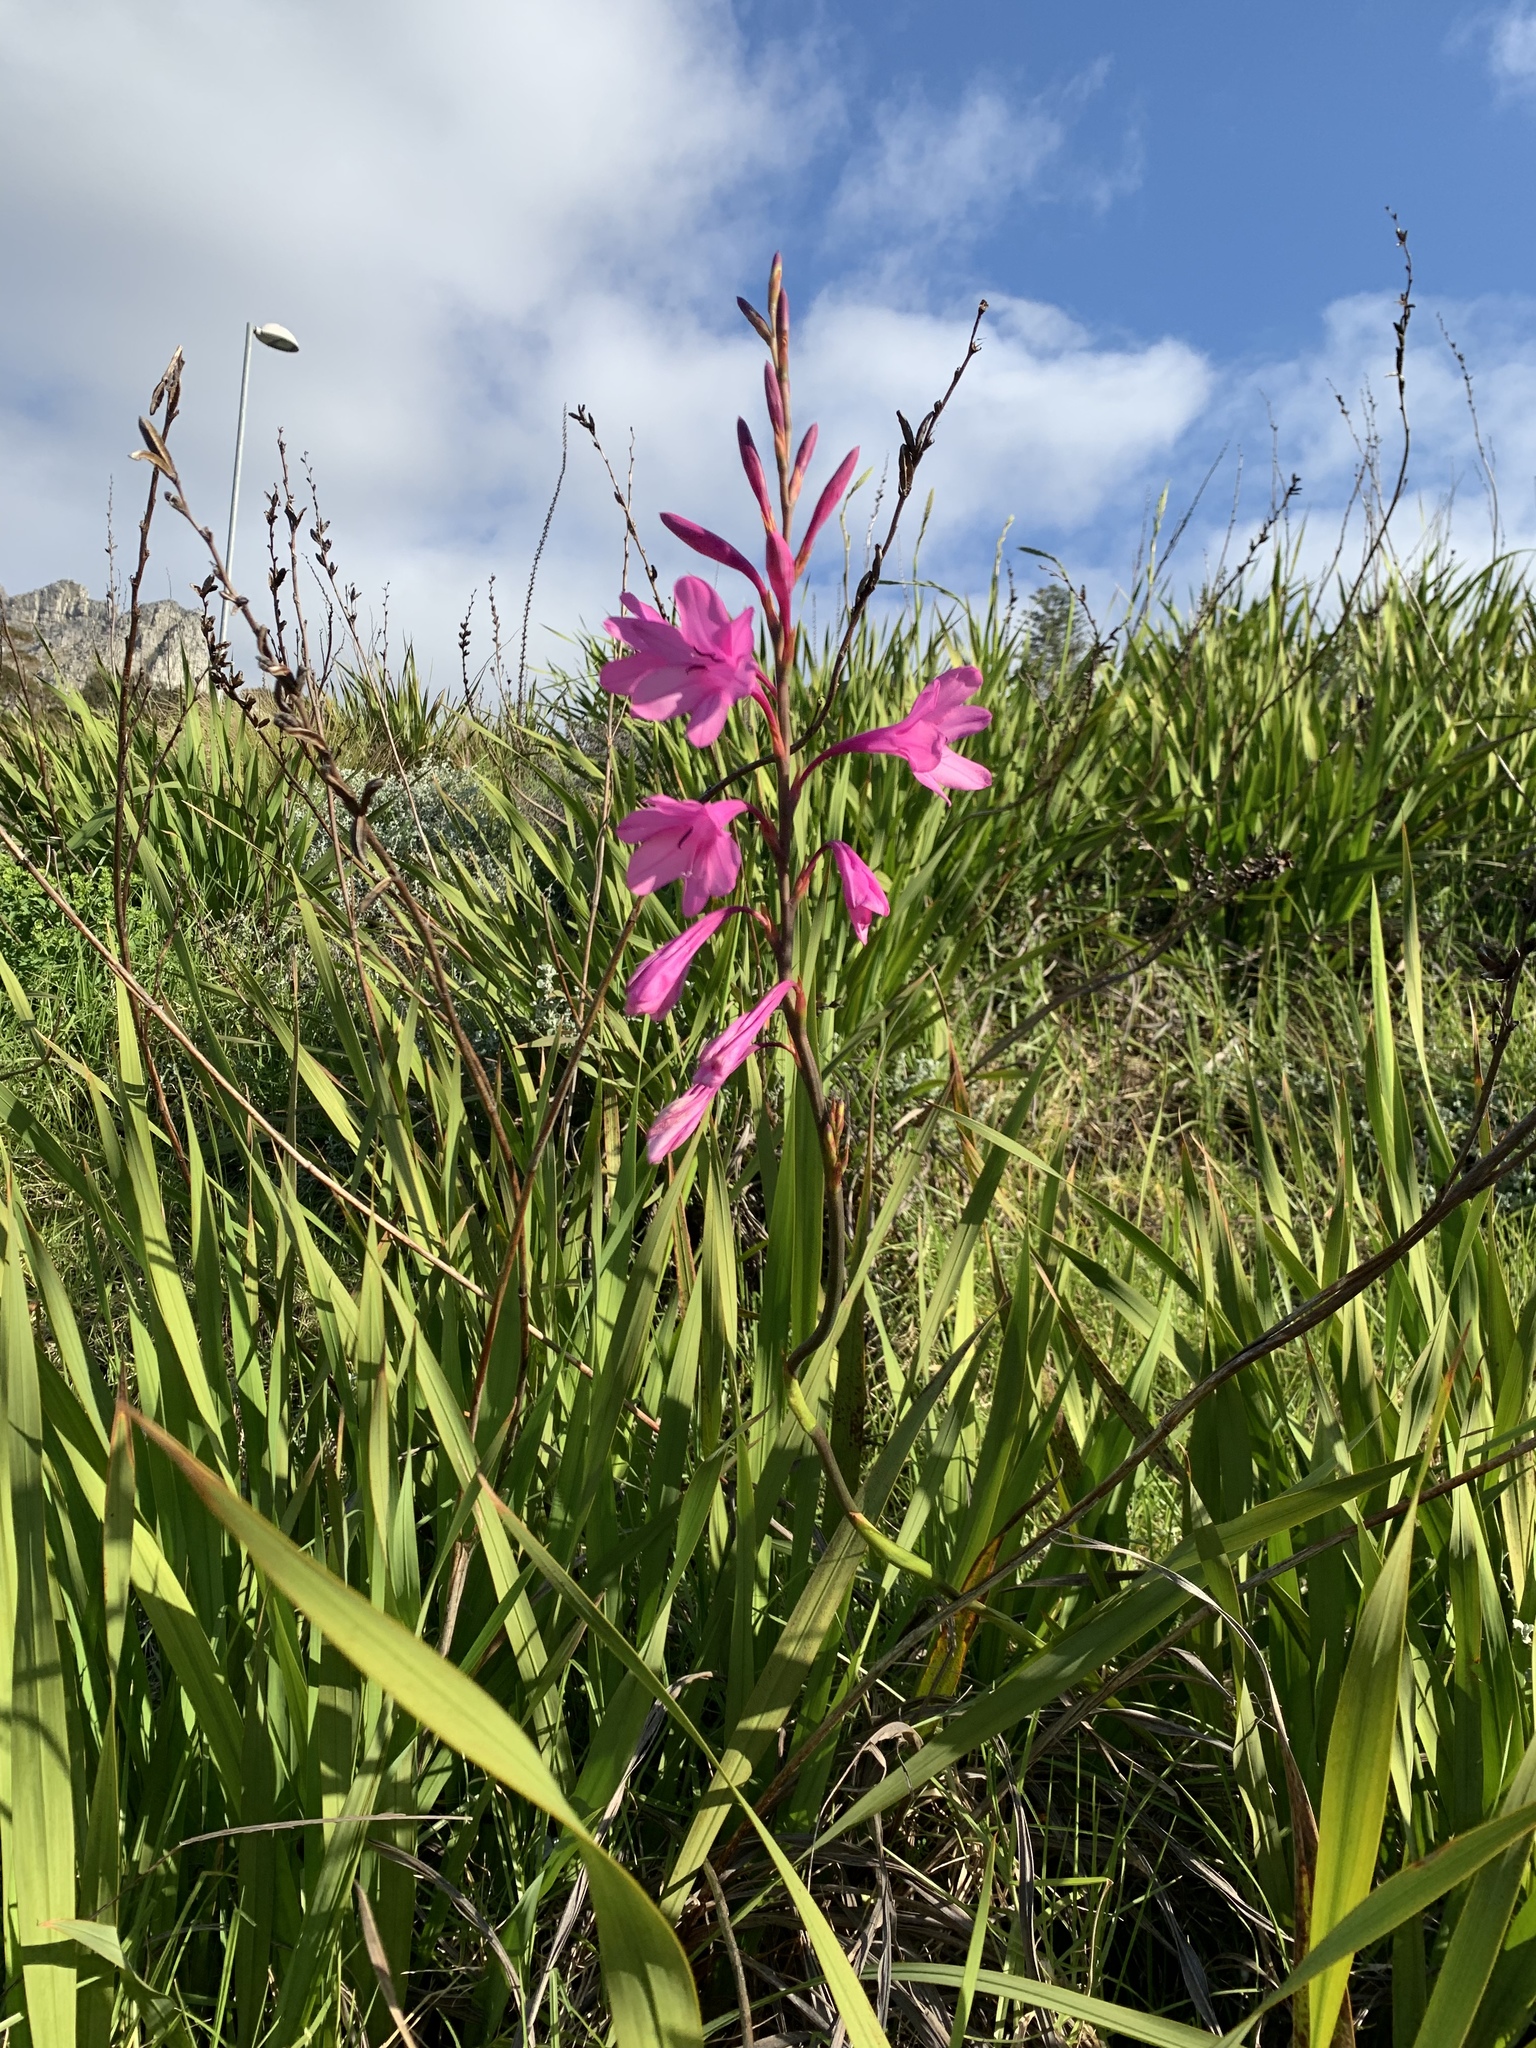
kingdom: Plantae
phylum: Tracheophyta
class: Liliopsida
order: Asparagales
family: Iridaceae
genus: Watsonia
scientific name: Watsonia borbonica
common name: Bugle-lily
